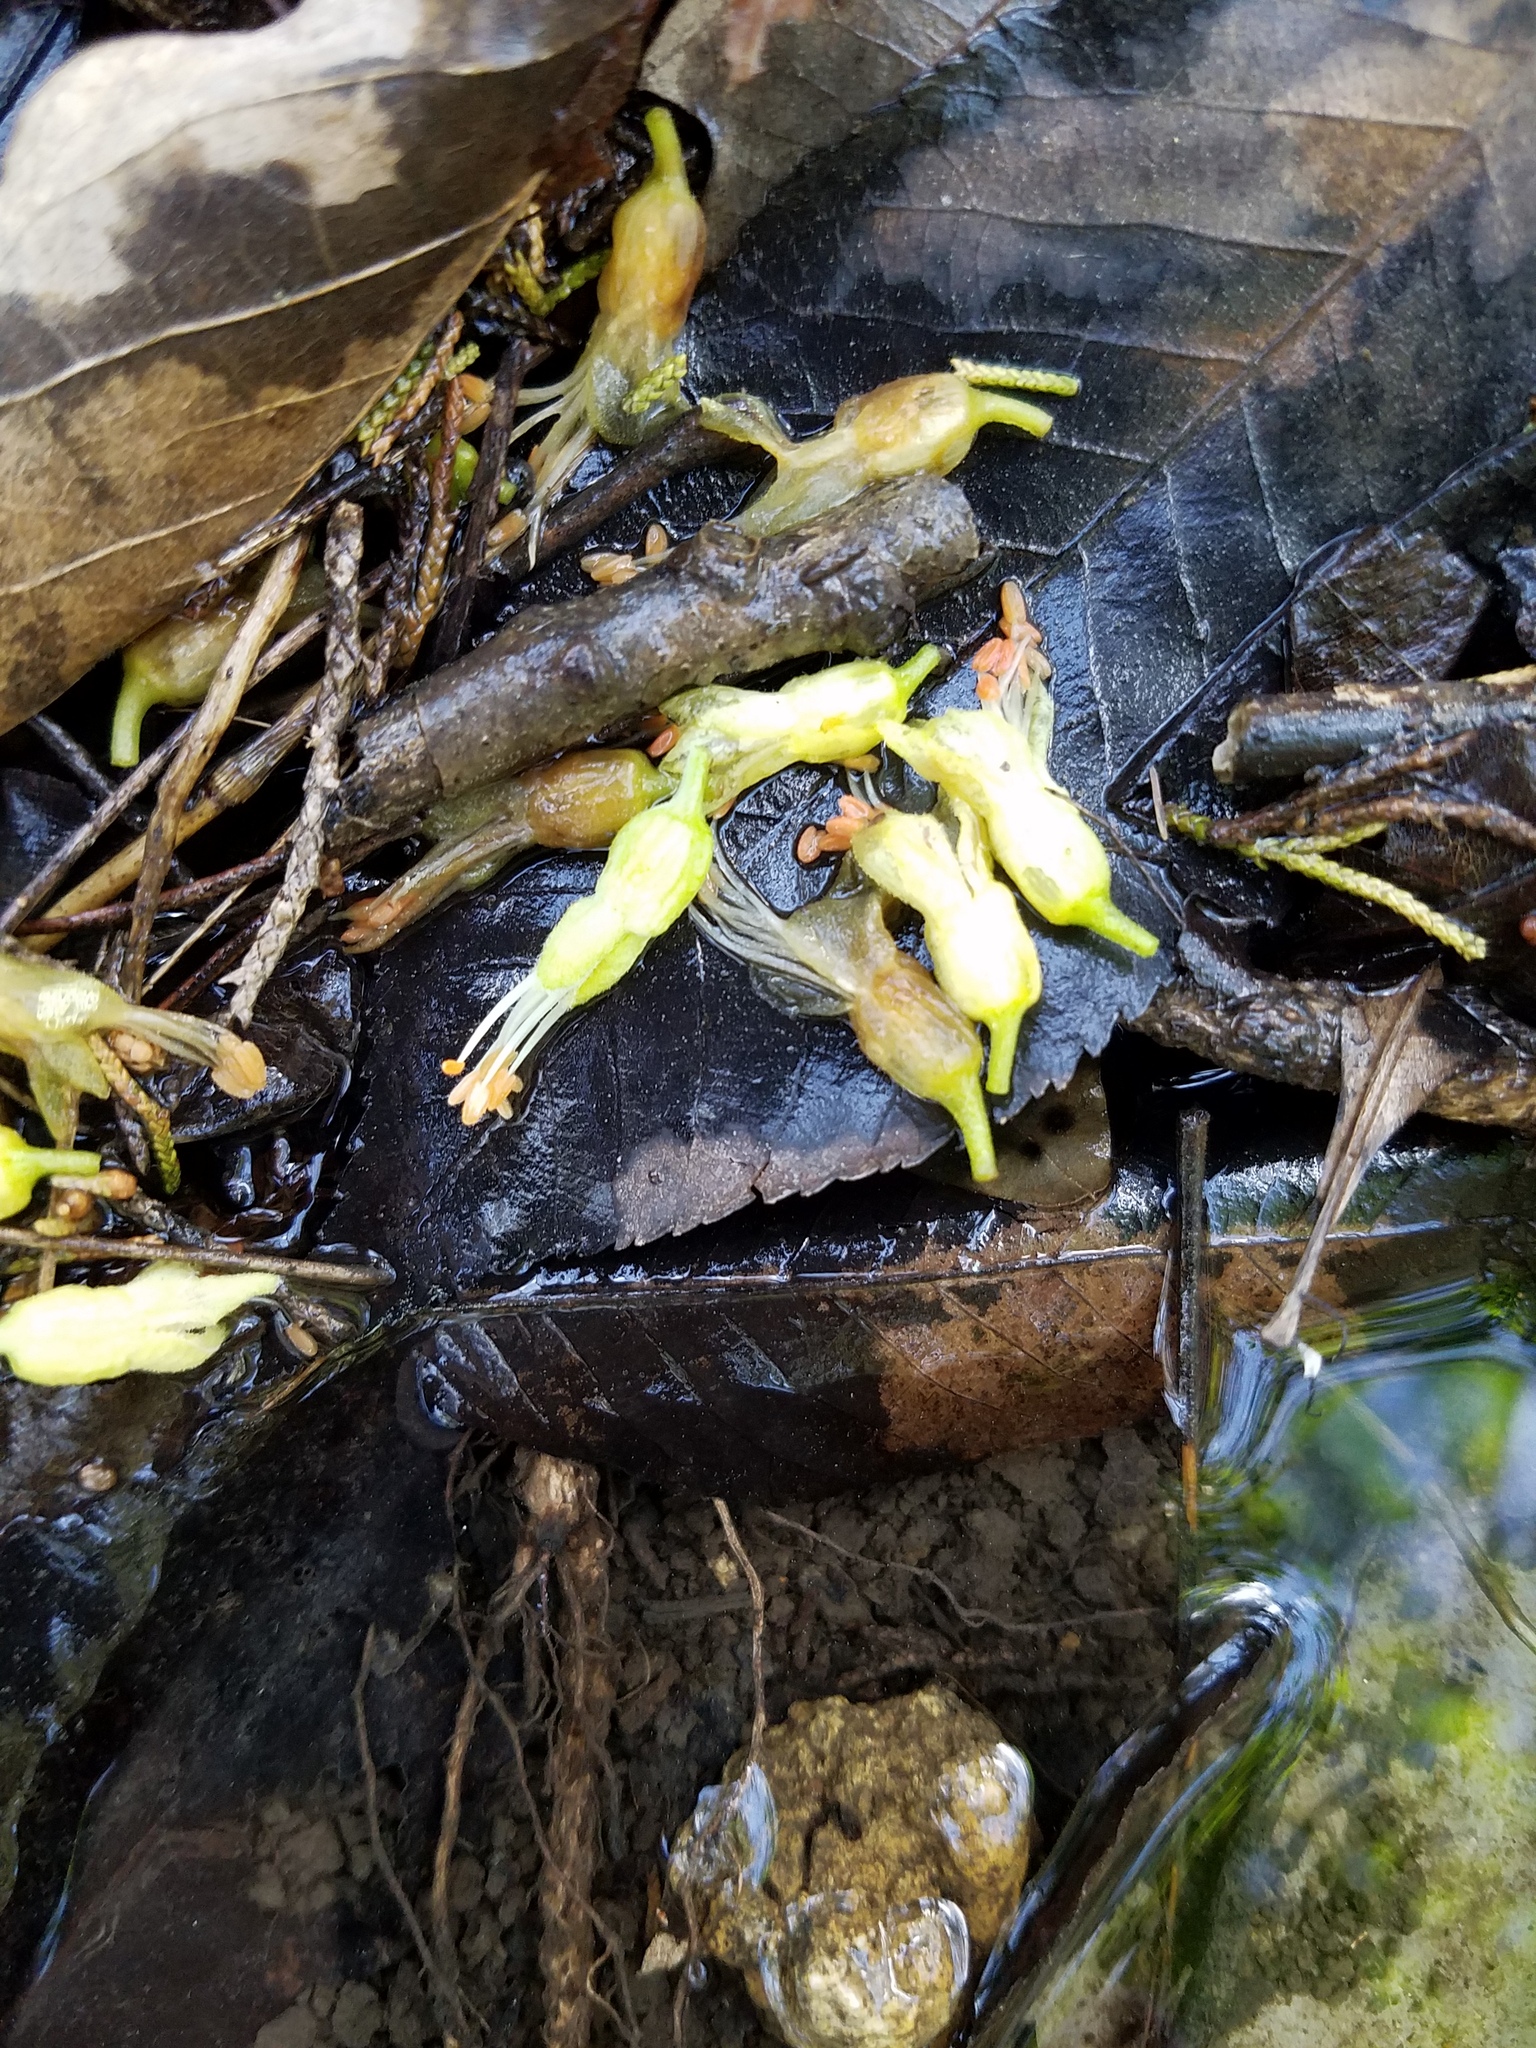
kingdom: Plantae
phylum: Tracheophyta
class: Magnoliopsida
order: Sapindales
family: Sapindaceae
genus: Aesculus
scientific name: Aesculus glabra
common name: Ohio buckeye
